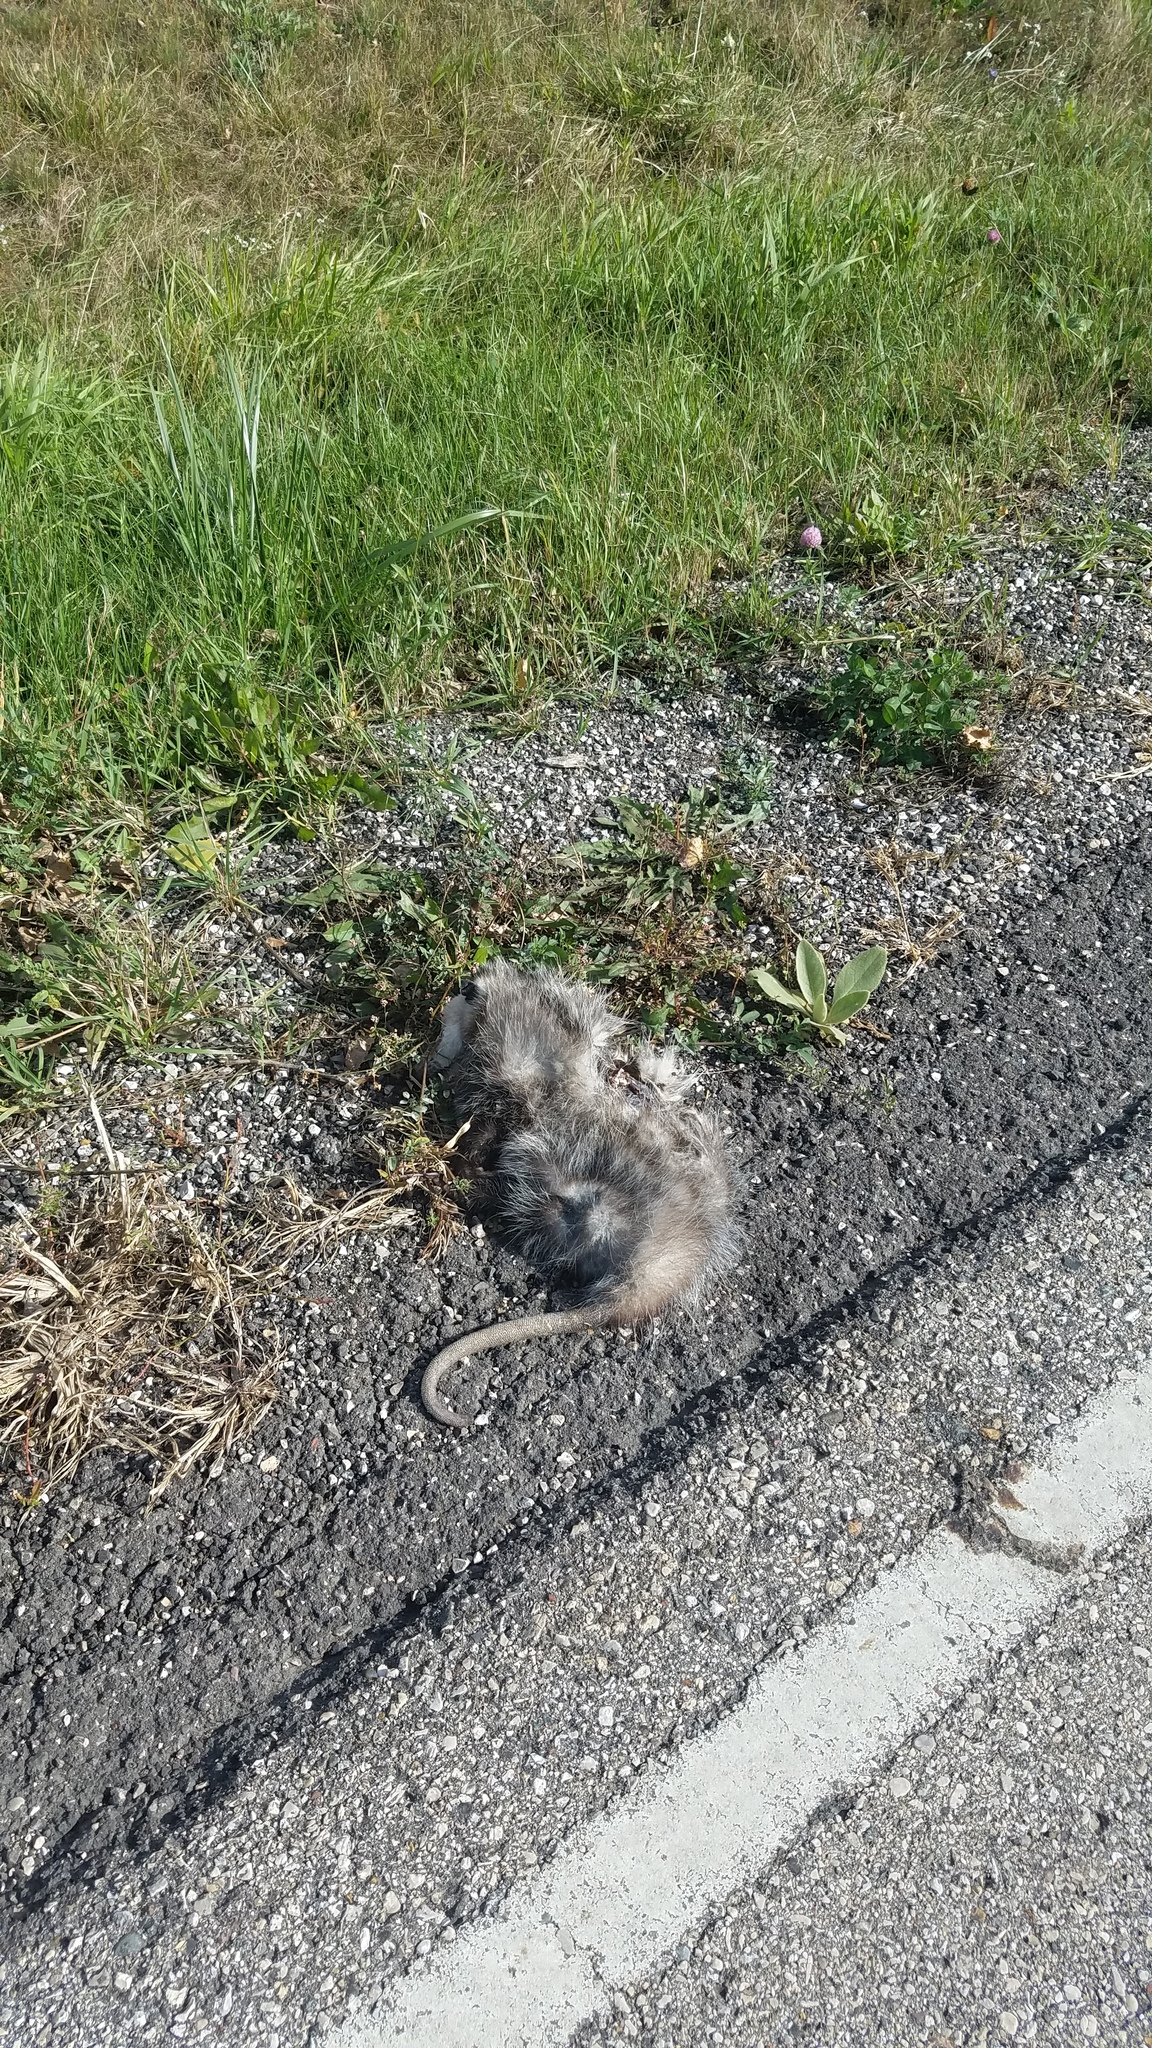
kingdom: Animalia
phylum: Chordata
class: Mammalia
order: Didelphimorphia
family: Didelphidae
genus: Didelphis
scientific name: Didelphis virginiana
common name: Virginia opossum
